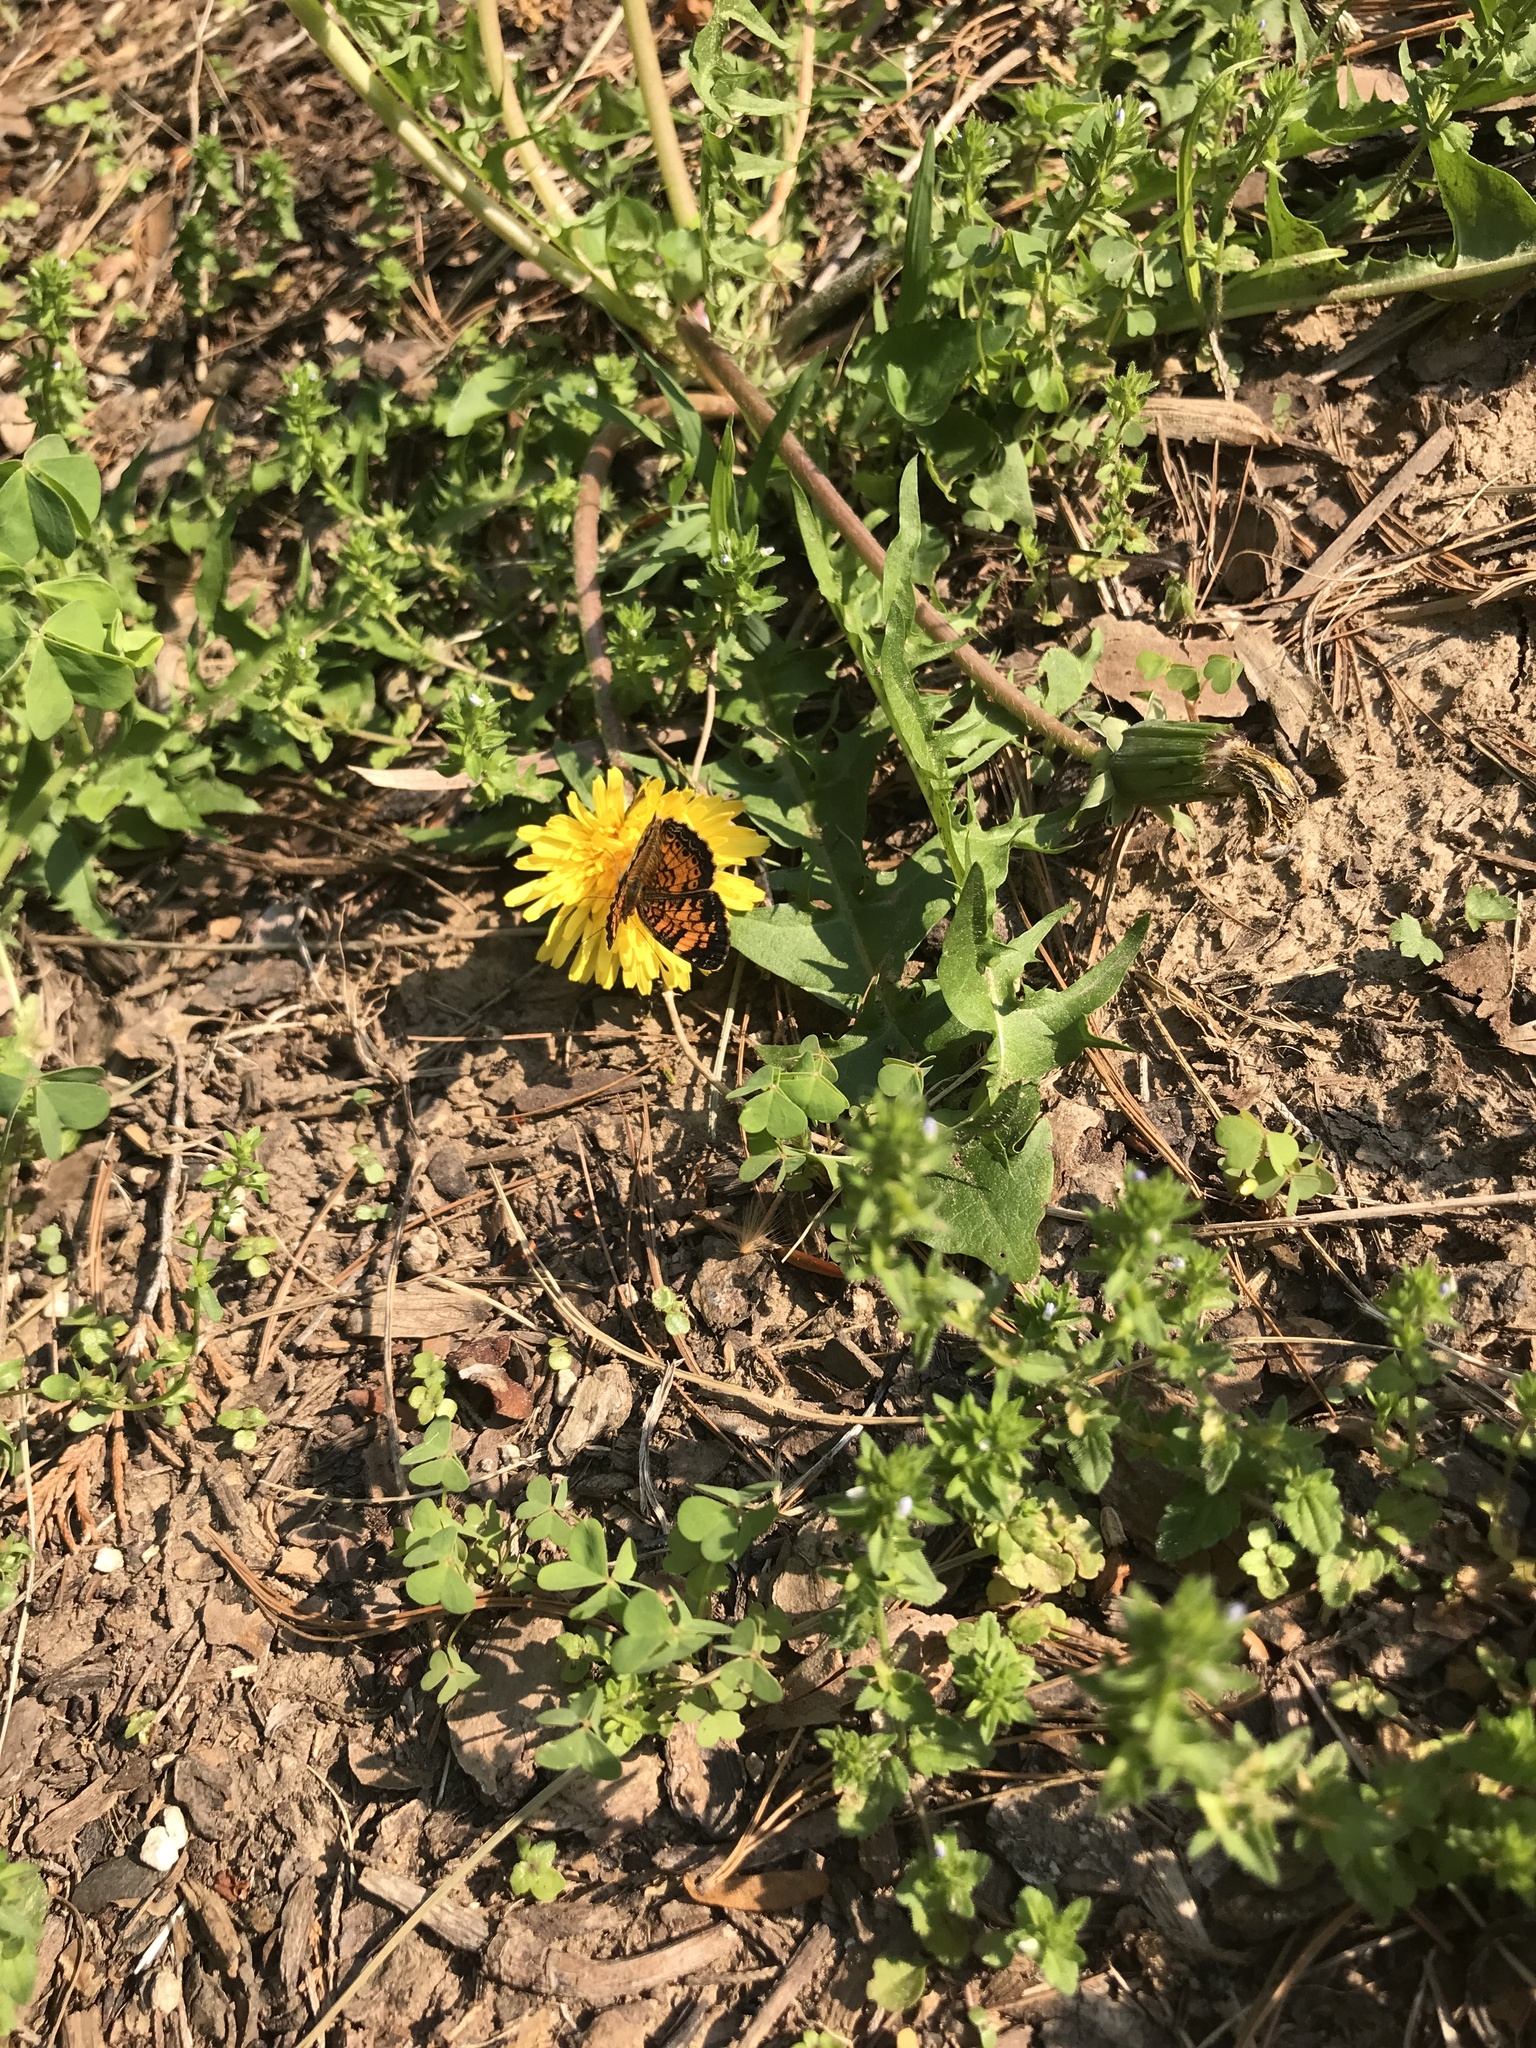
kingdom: Animalia
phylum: Arthropoda
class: Insecta
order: Lepidoptera
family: Nymphalidae
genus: Phyciodes
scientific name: Phyciodes tharos
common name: Pearl crescent
